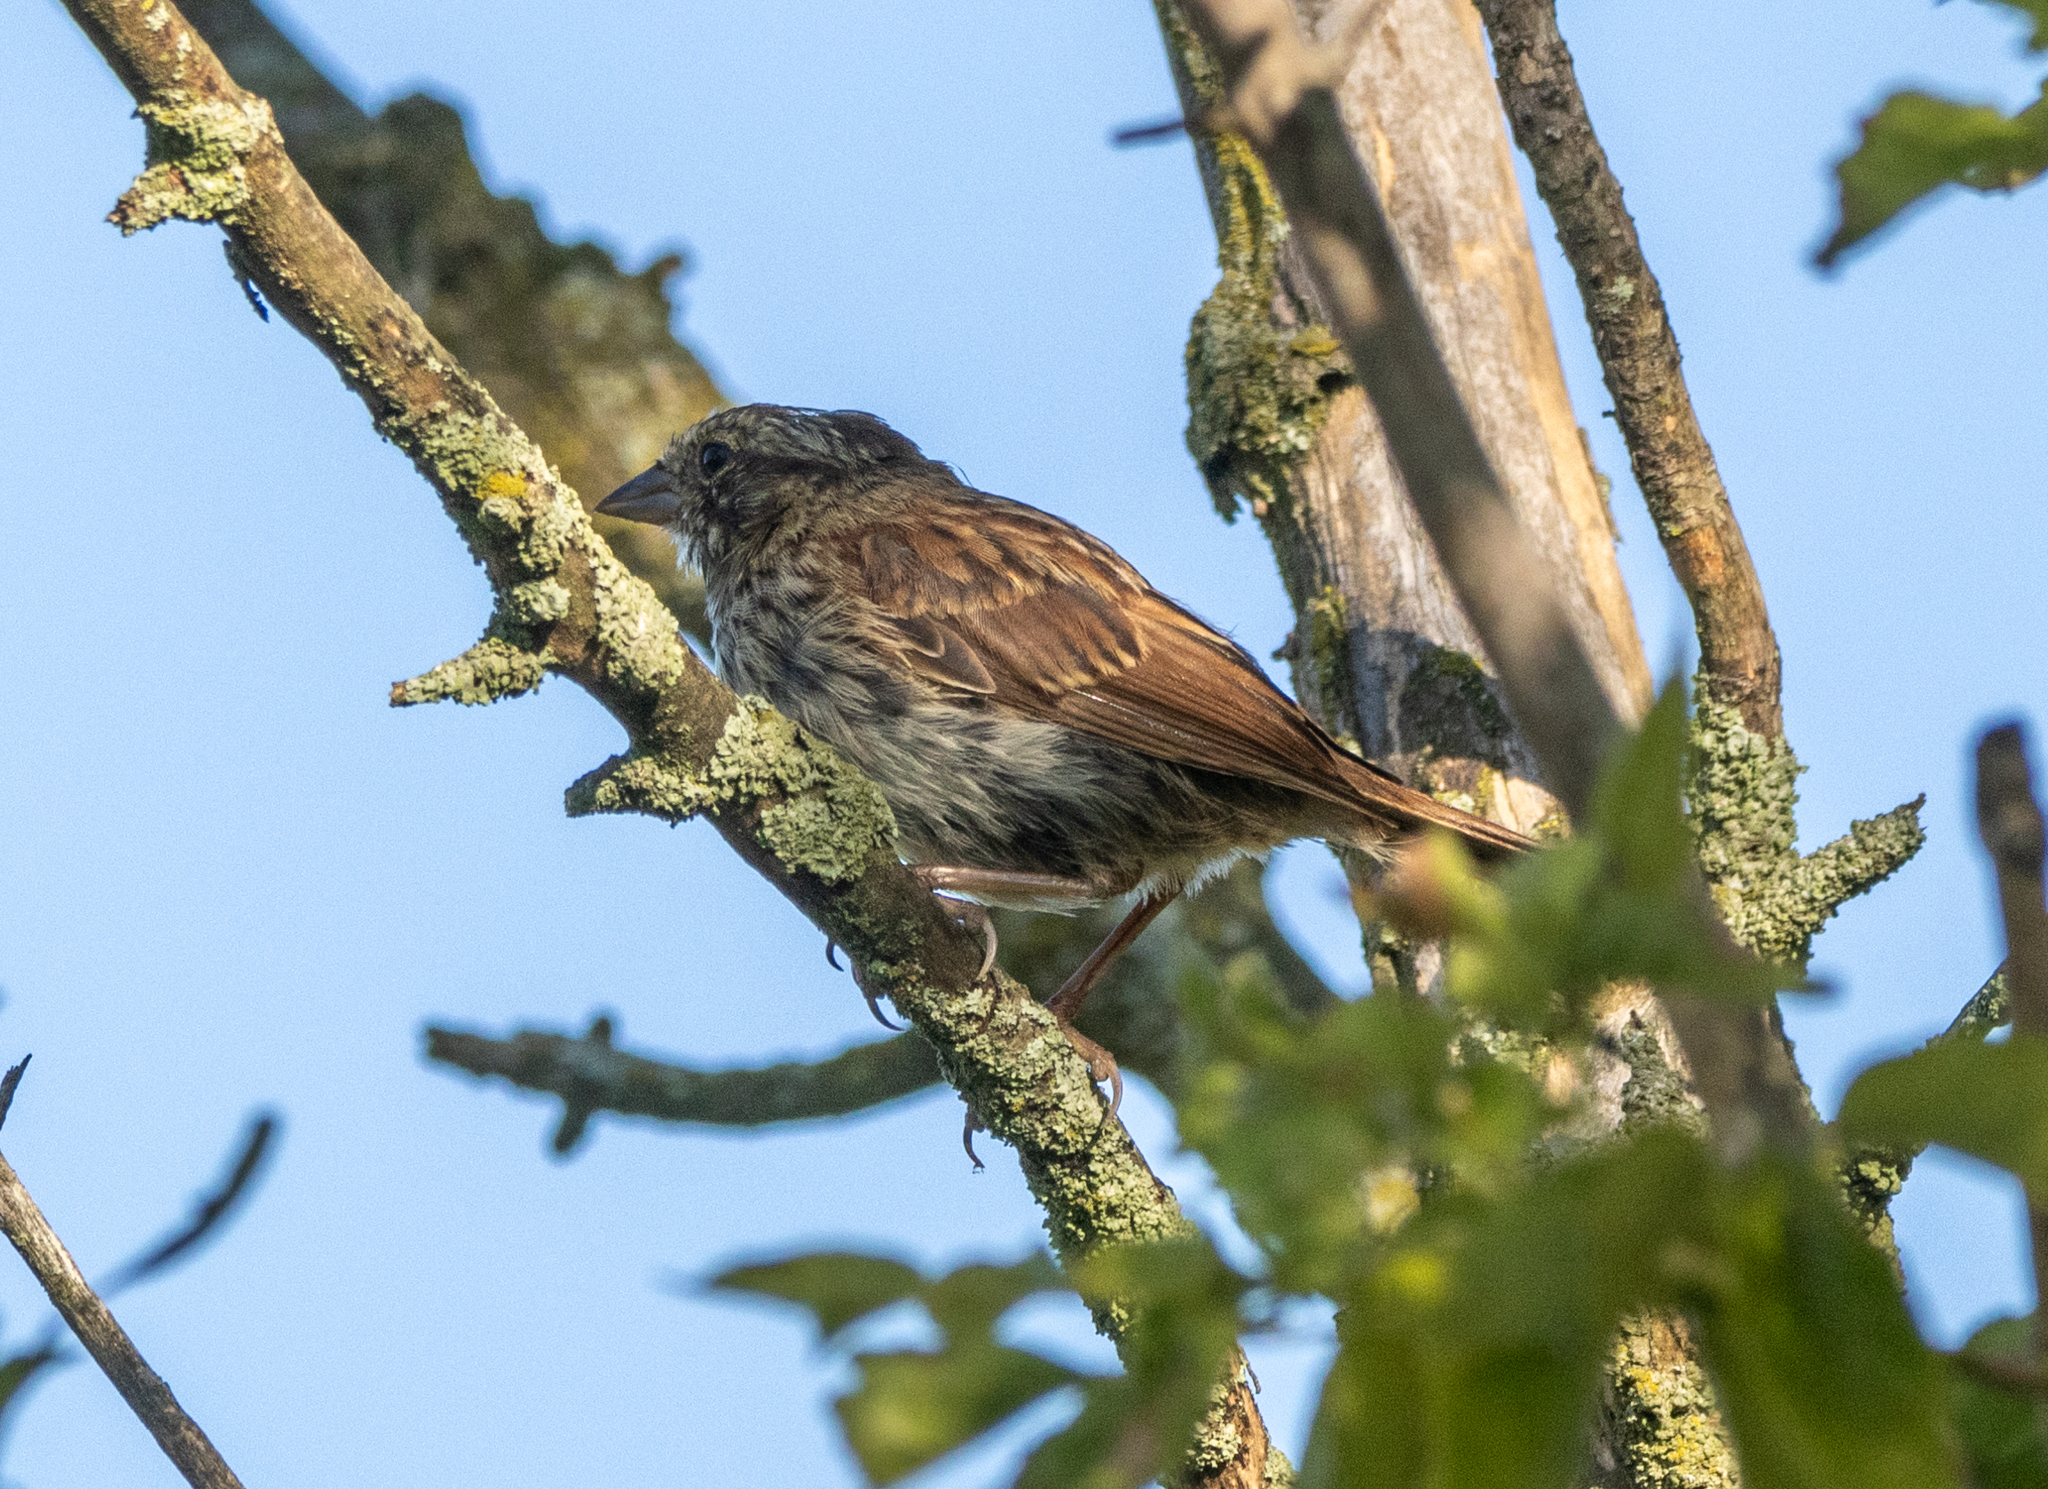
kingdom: Animalia
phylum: Chordata
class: Aves
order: Passeriformes
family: Passerellidae
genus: Melospiza
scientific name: Melospiza melodia
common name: Song sparrow
